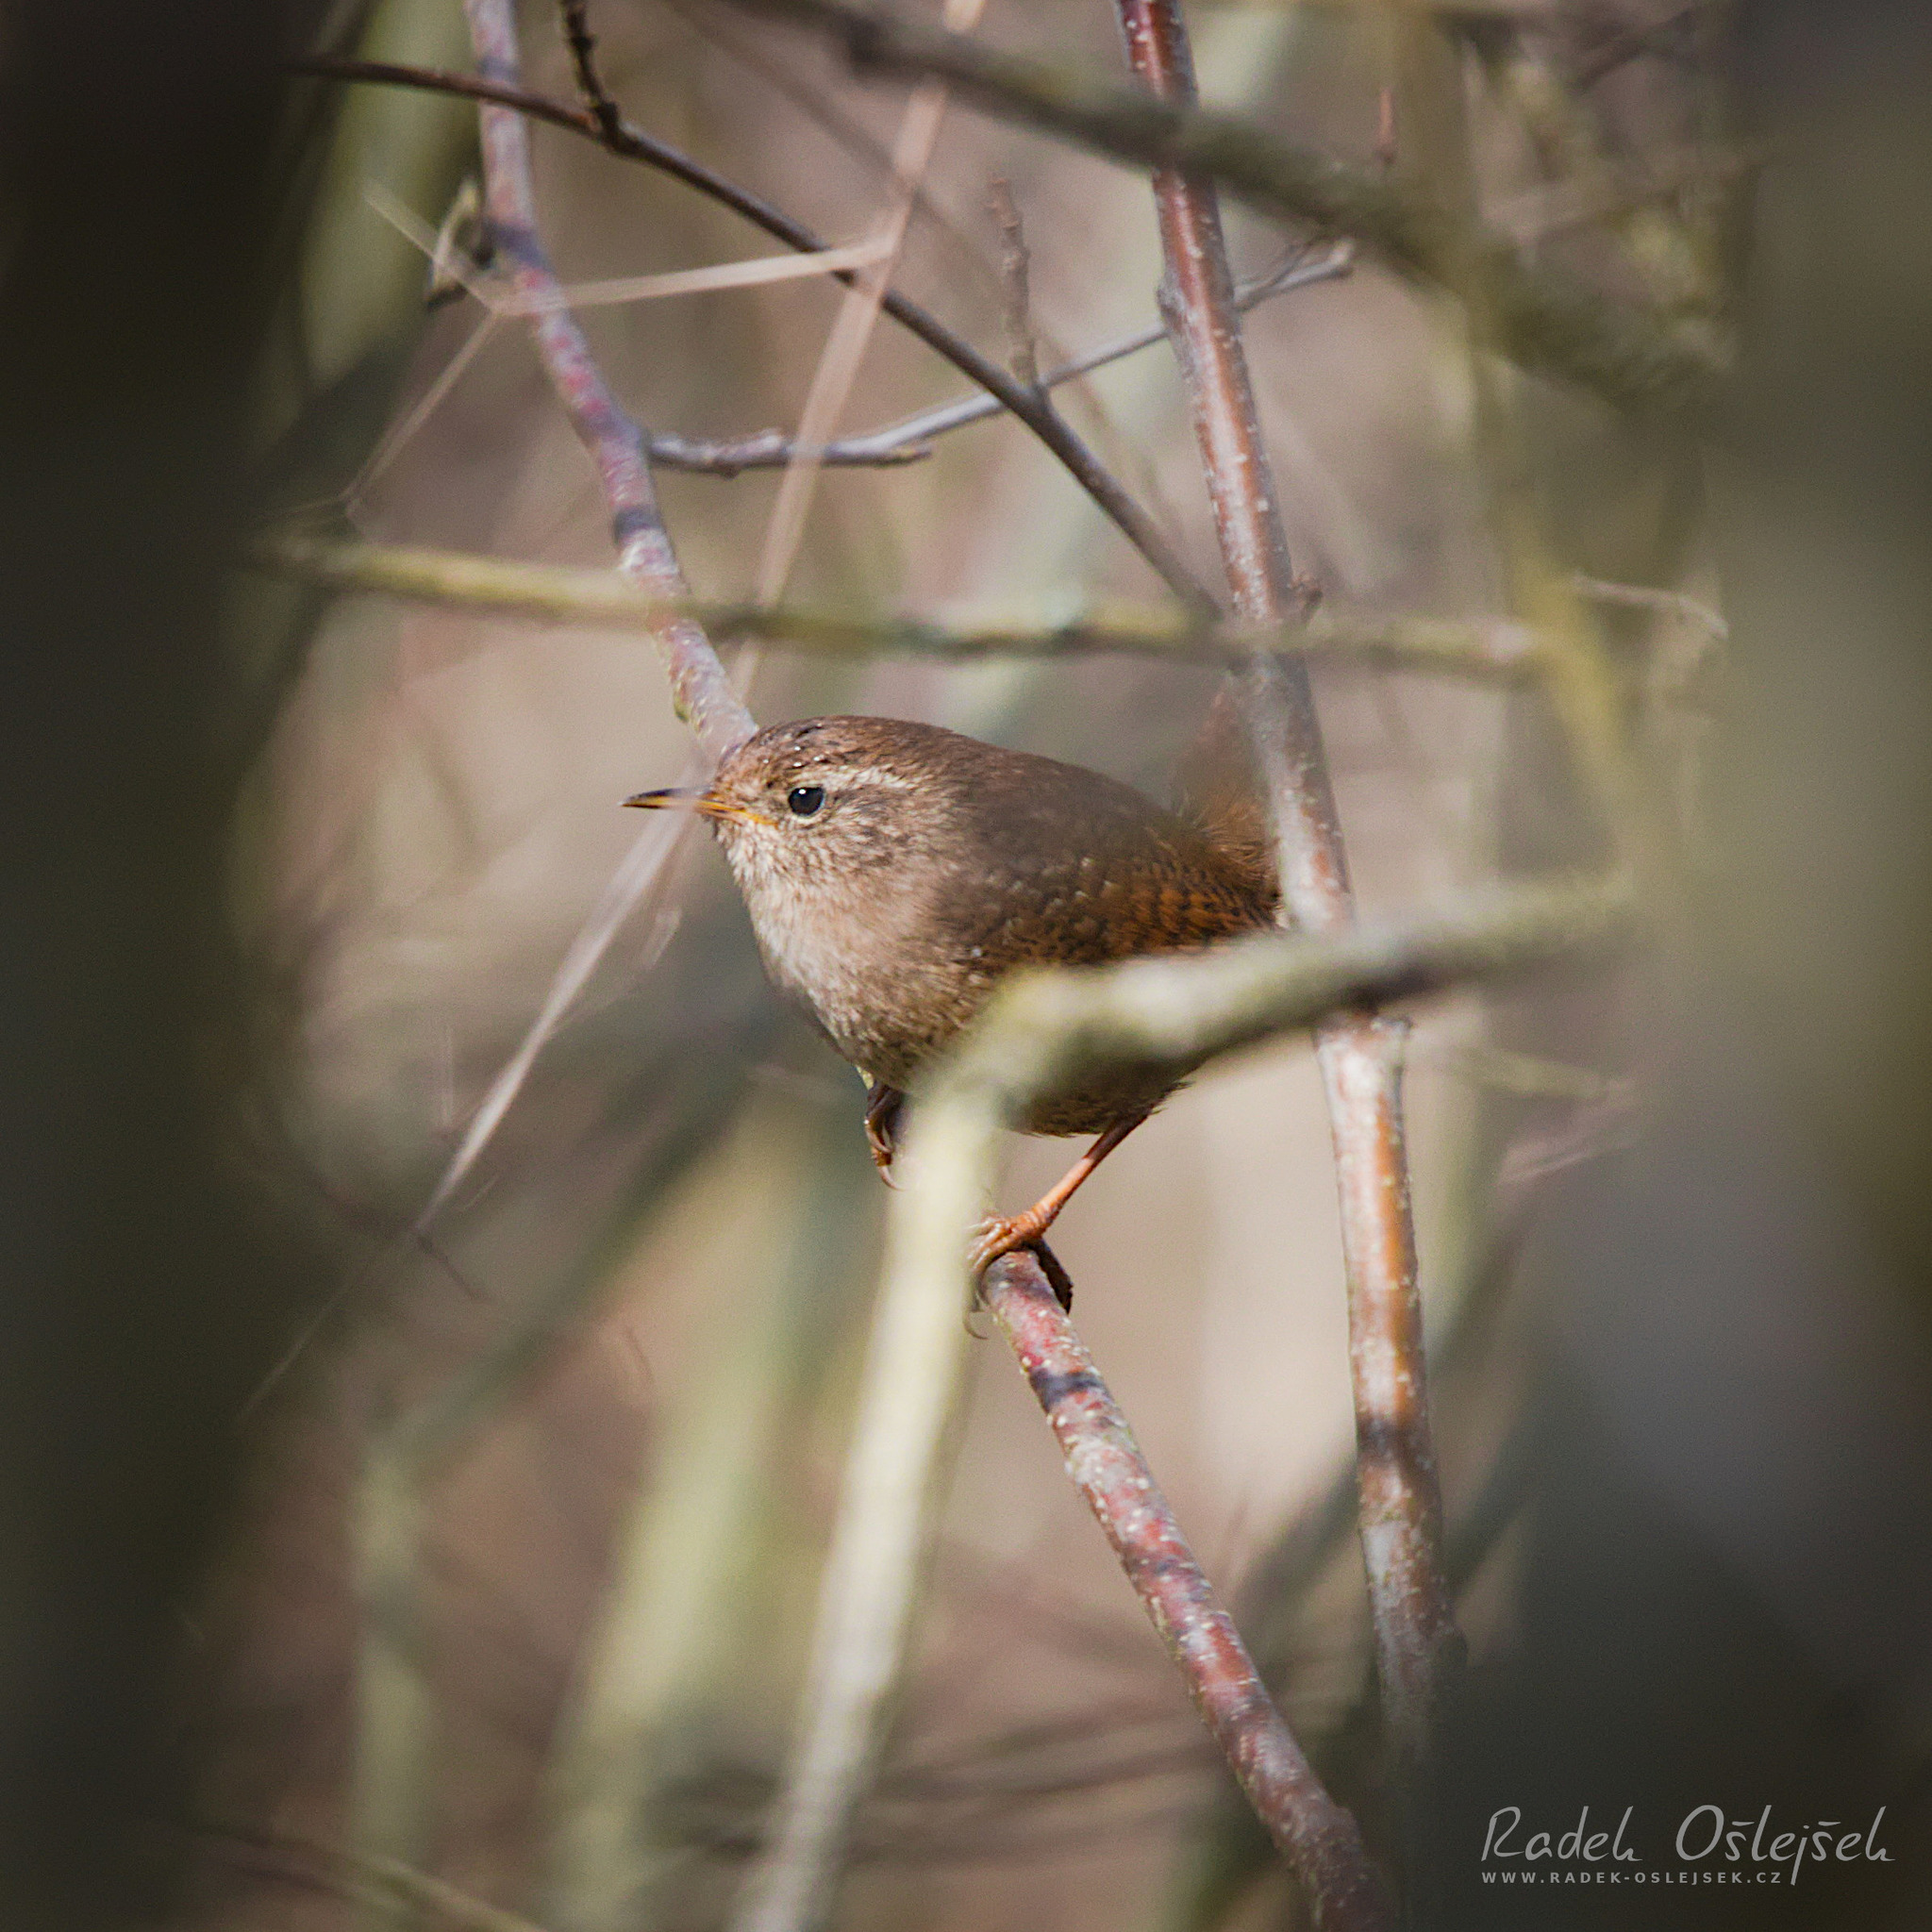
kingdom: Animalia
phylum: Chordata
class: Aves
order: Passeriformes
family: Troglodytidae
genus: Troglodytes
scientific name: Troglodytes troglodytes
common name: Eurasian wren
